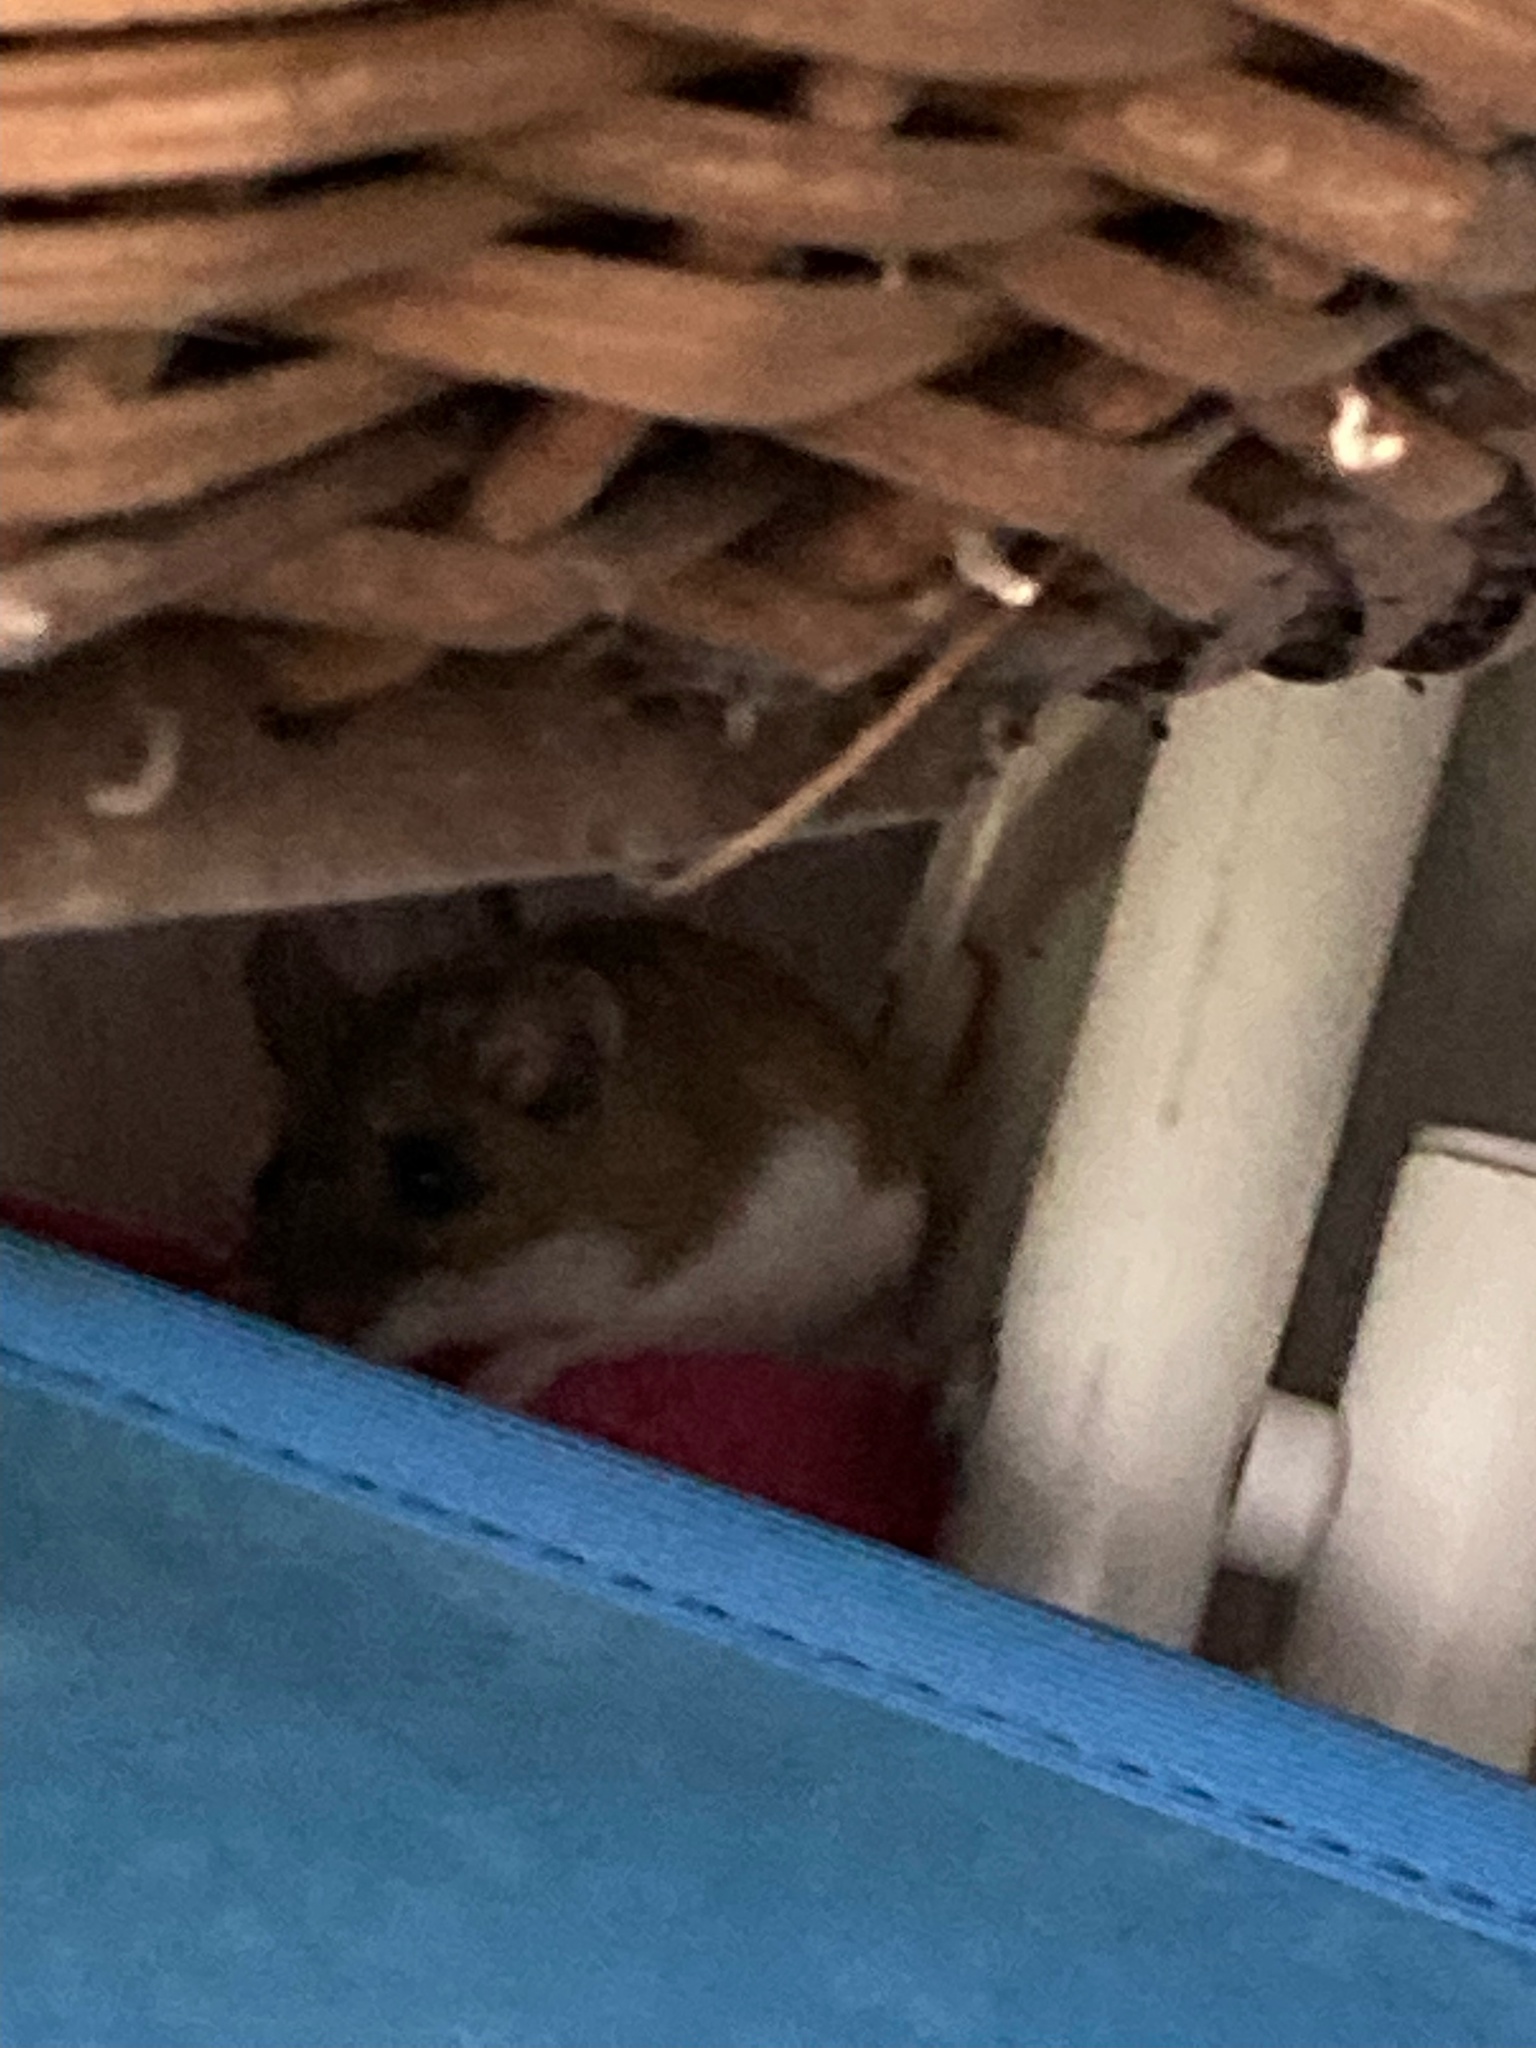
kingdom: Animalia
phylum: Chordata
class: Mammalia
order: Rodentia
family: Cricetidae
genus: Peromyscus
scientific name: Peromyscus leucopus
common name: White-footed deermouse
